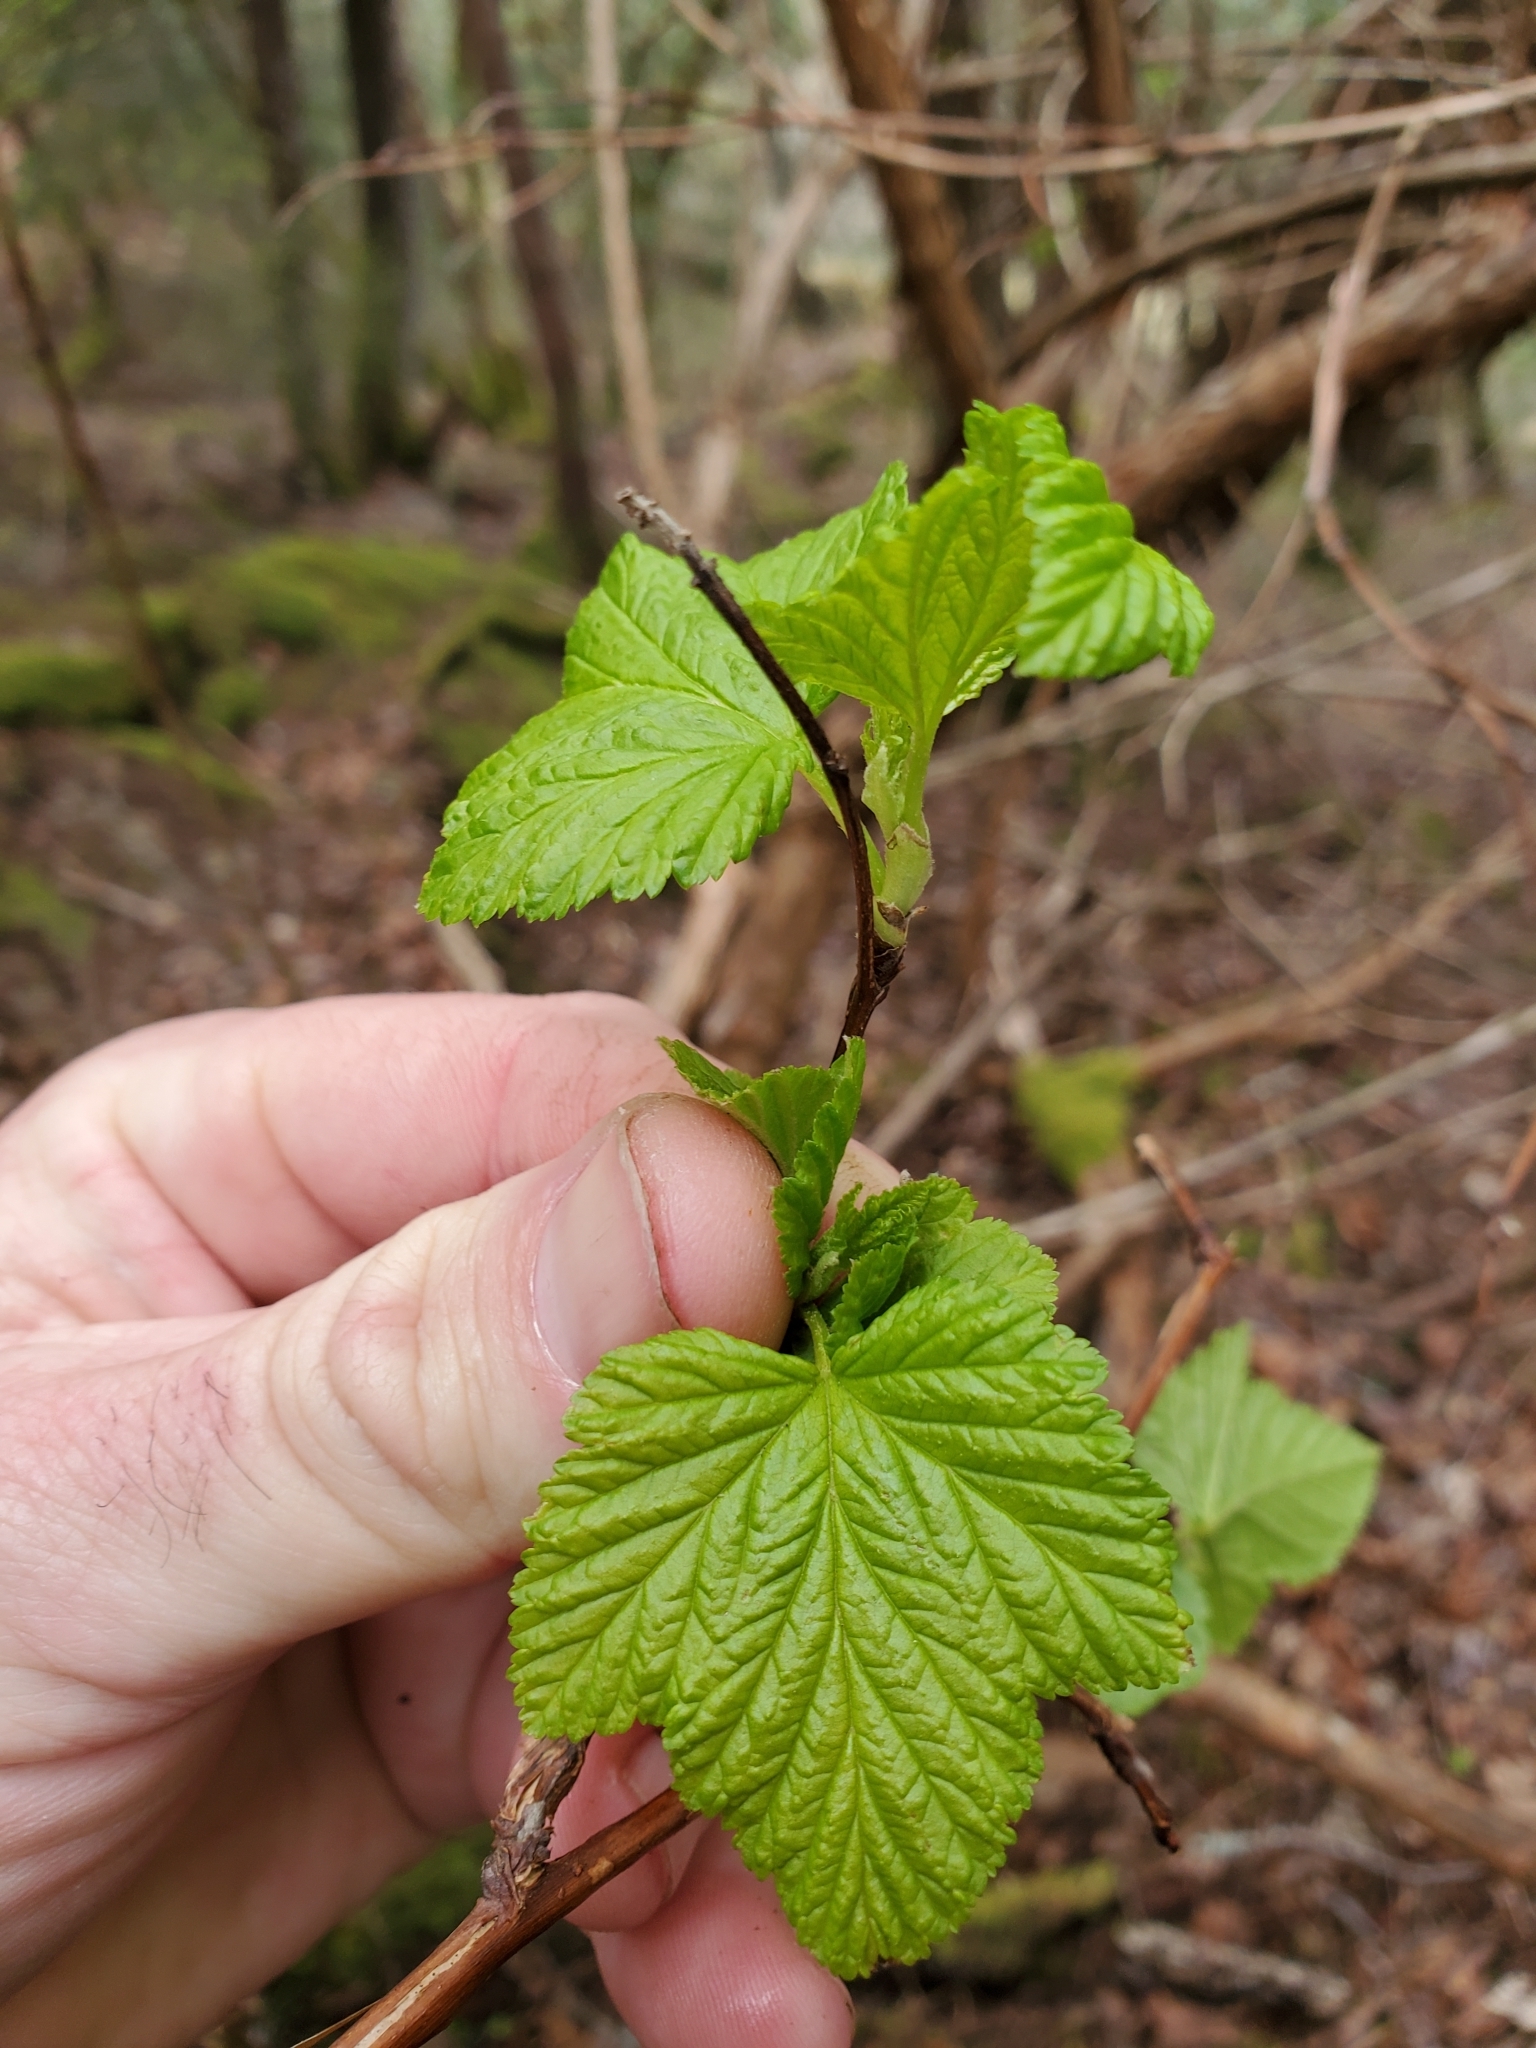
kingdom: Plantae
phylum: Tracheophyta
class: Magnoliopsida
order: Rosales
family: Rosaceae
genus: Physocarpus
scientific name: Physocarpus capitatus
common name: Pacific ninebark
